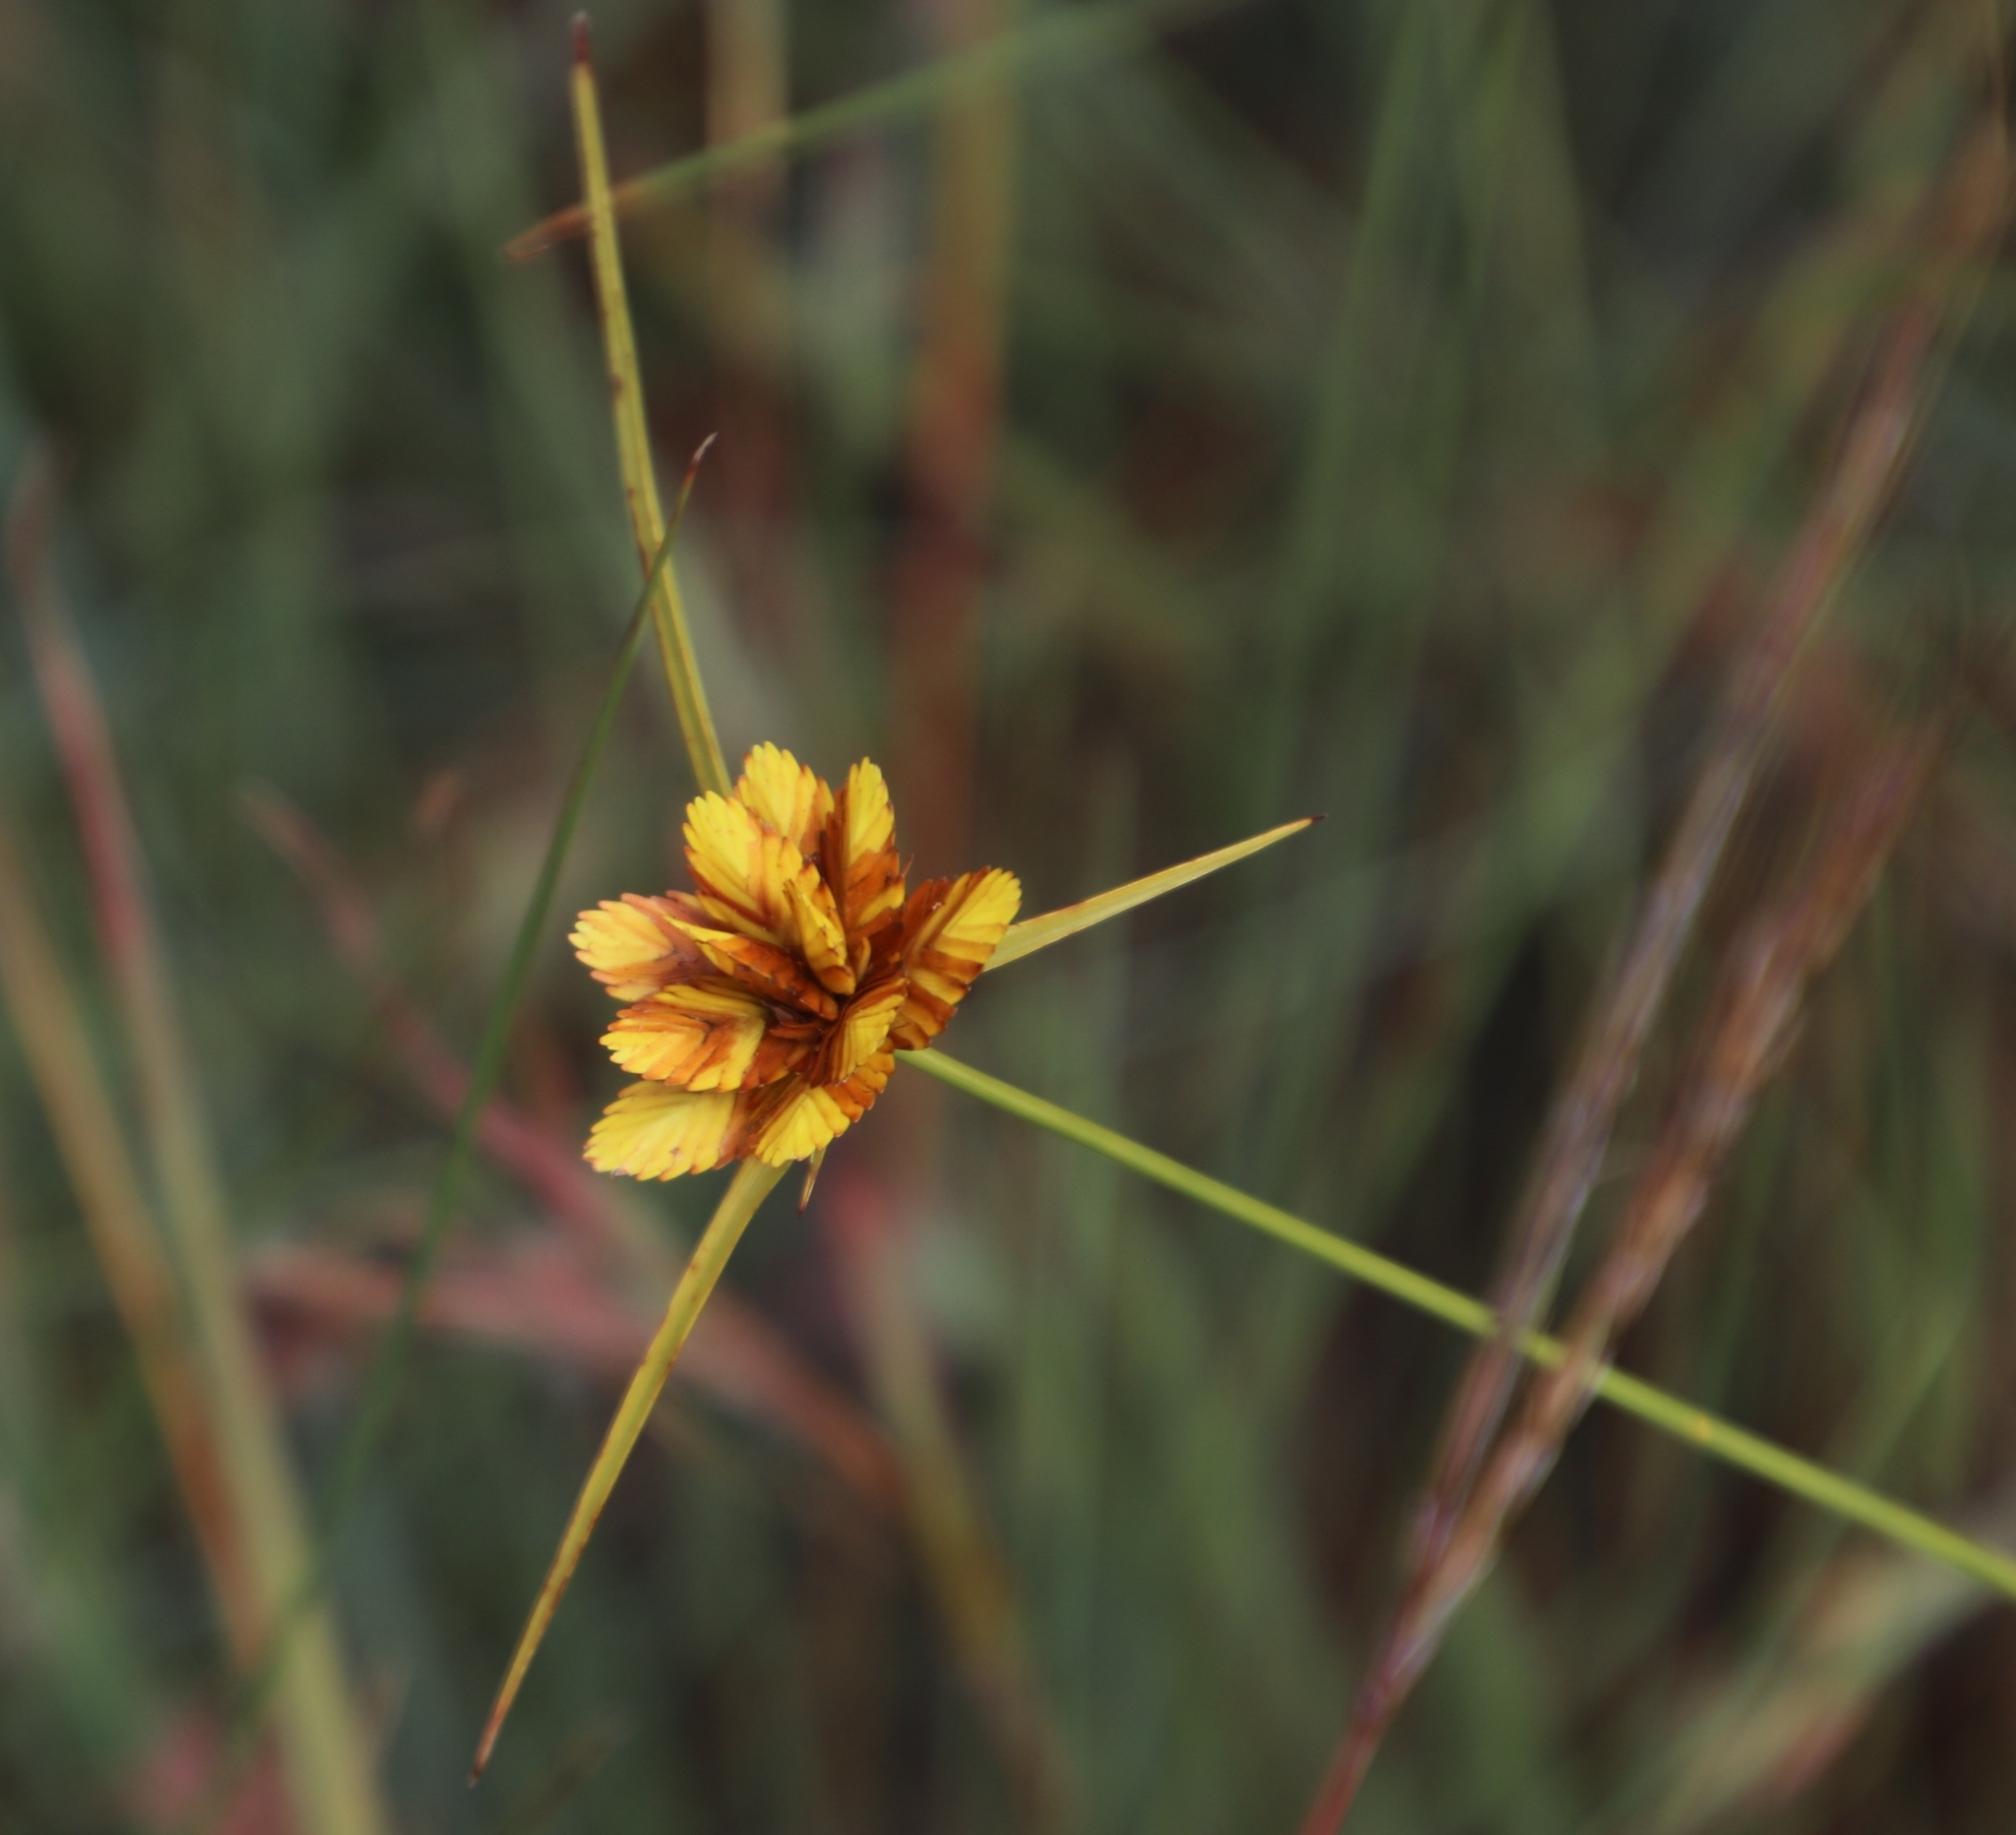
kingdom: Plantae
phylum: Tracheophyta
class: Liliopsida
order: Poales
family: Cyperaceae
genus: Cyperus
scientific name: Cyperus sphaerocephalus
